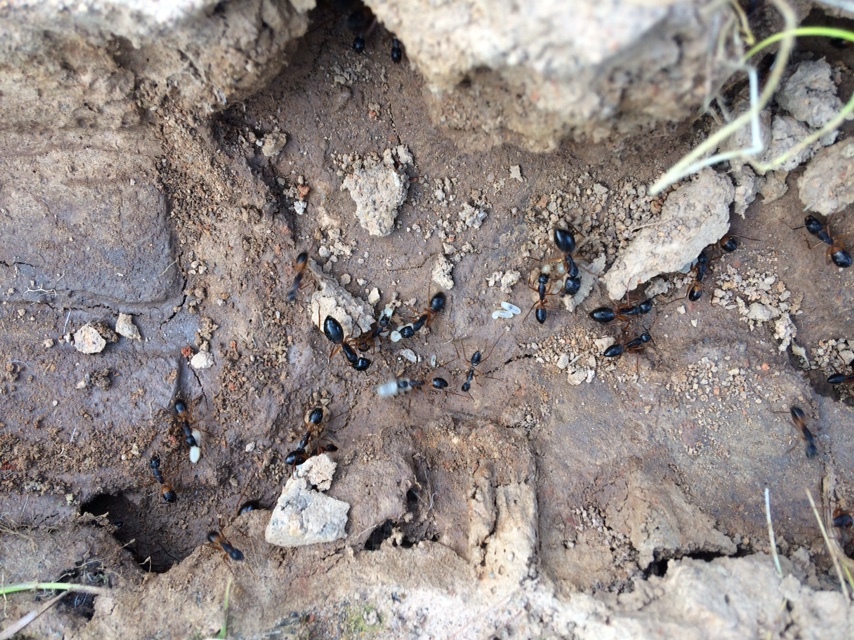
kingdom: Animalia
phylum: Arthropoda
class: Insecta
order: Hymenoptera
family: Formicidae
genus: Camponotus
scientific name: Camponotus consobrinus
